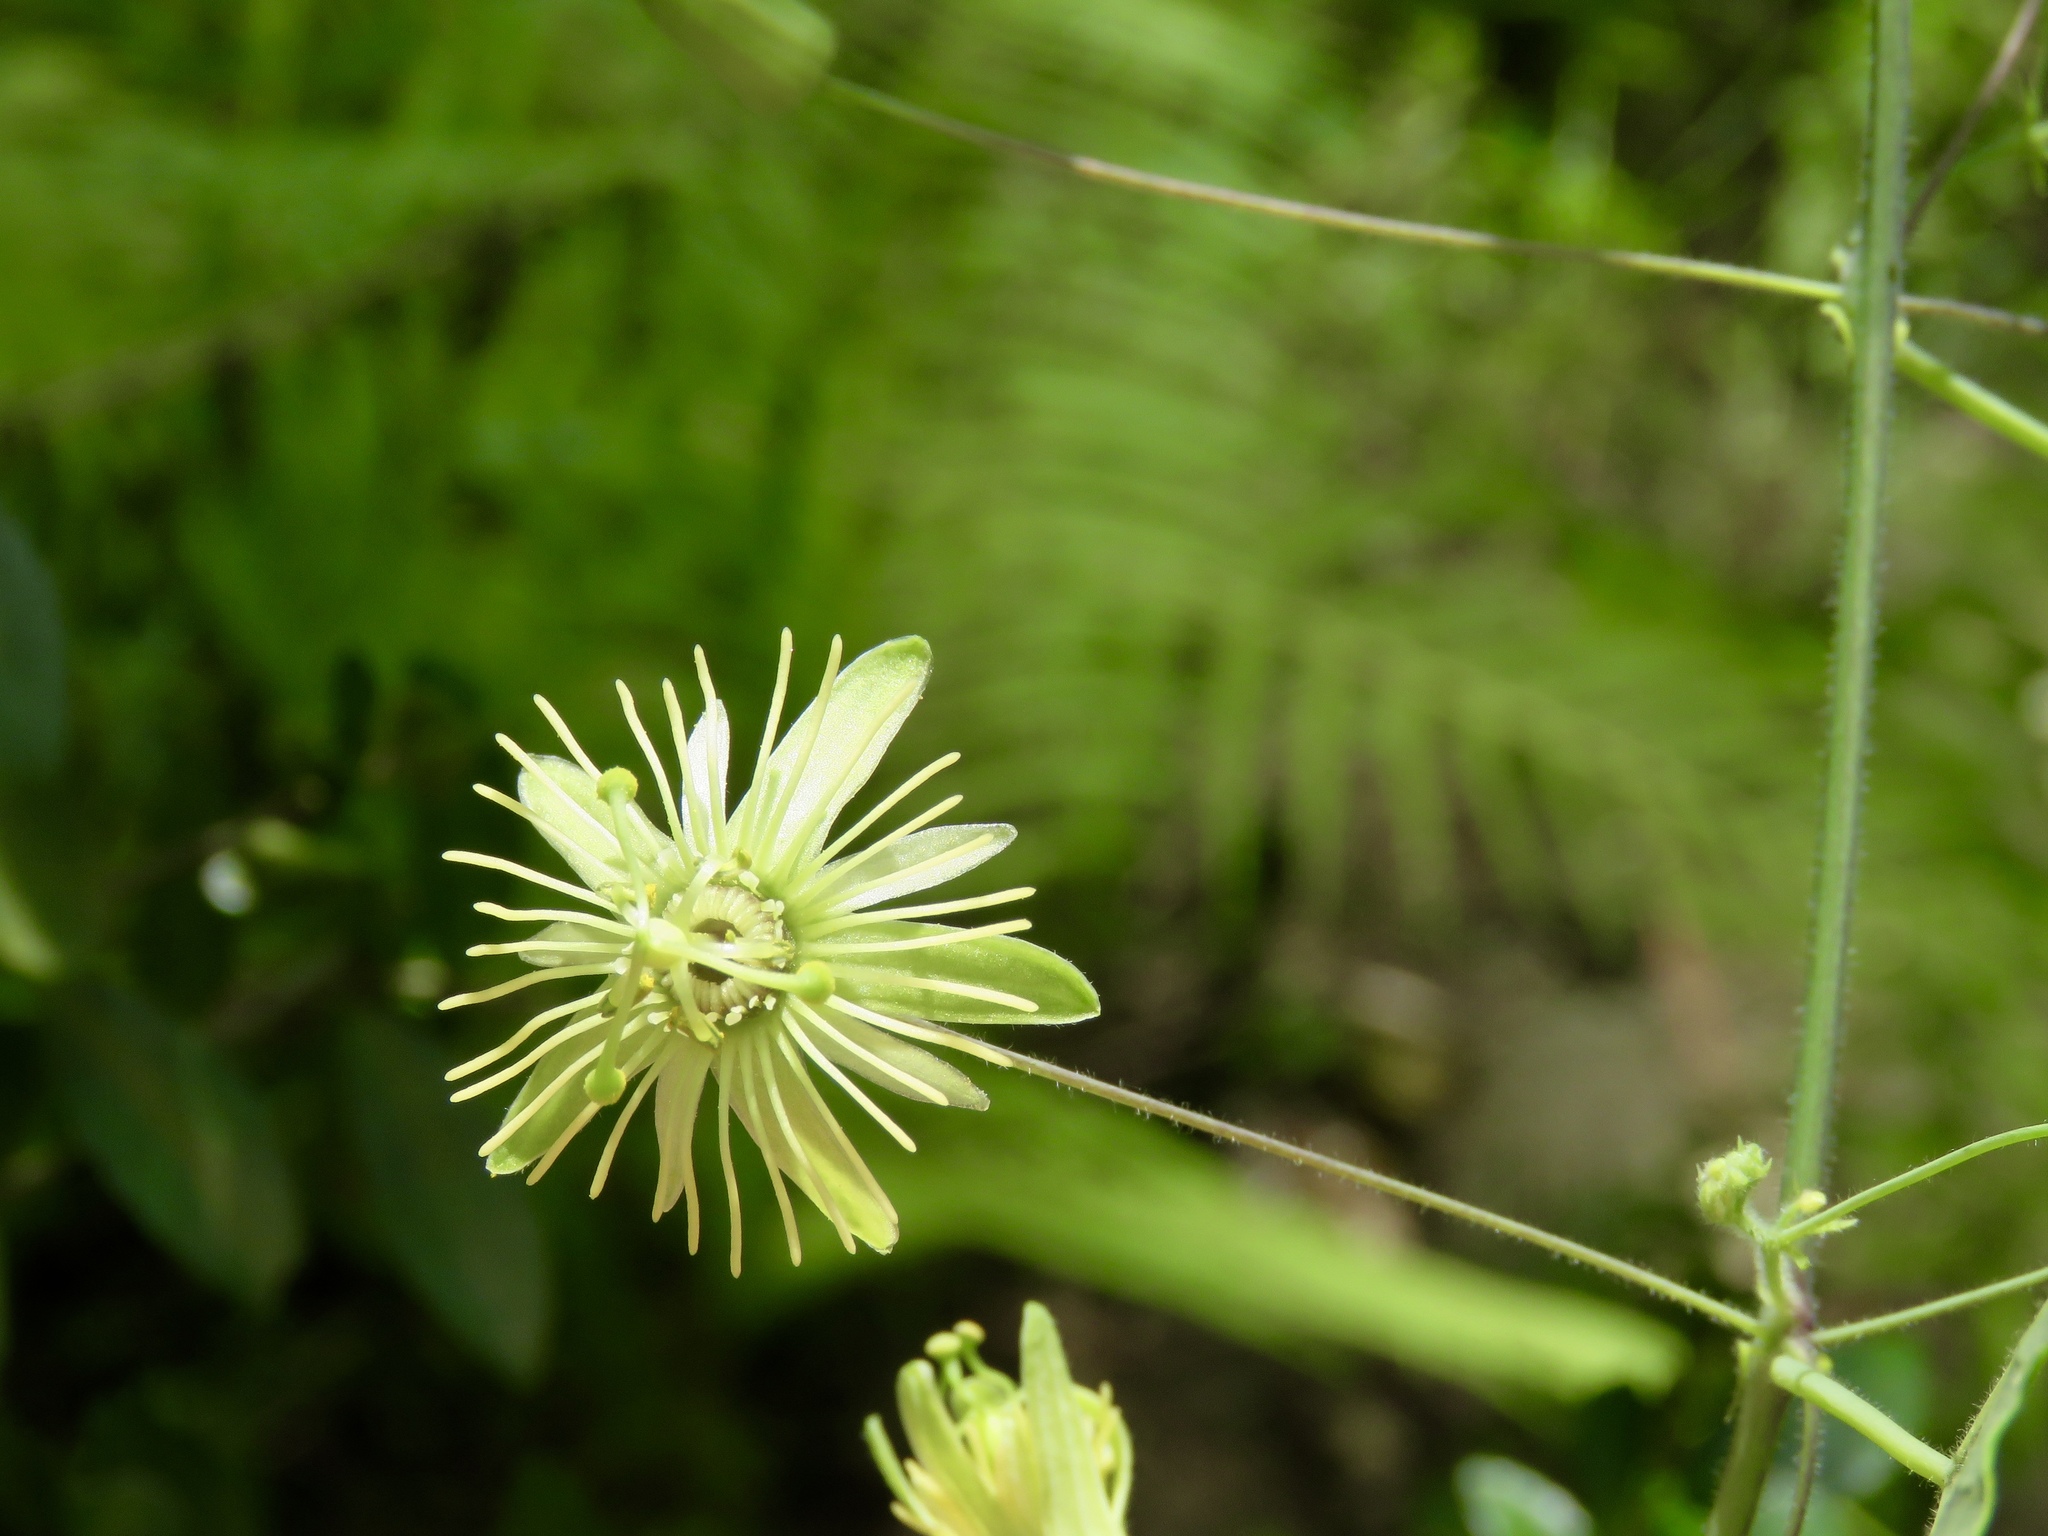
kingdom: Plantae
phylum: Tracheophyta
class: Magnoliopsida
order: Malpighiales
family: Passifloraceae
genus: Passiflora
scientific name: Passiflora lutea
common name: Yellow passionflower
